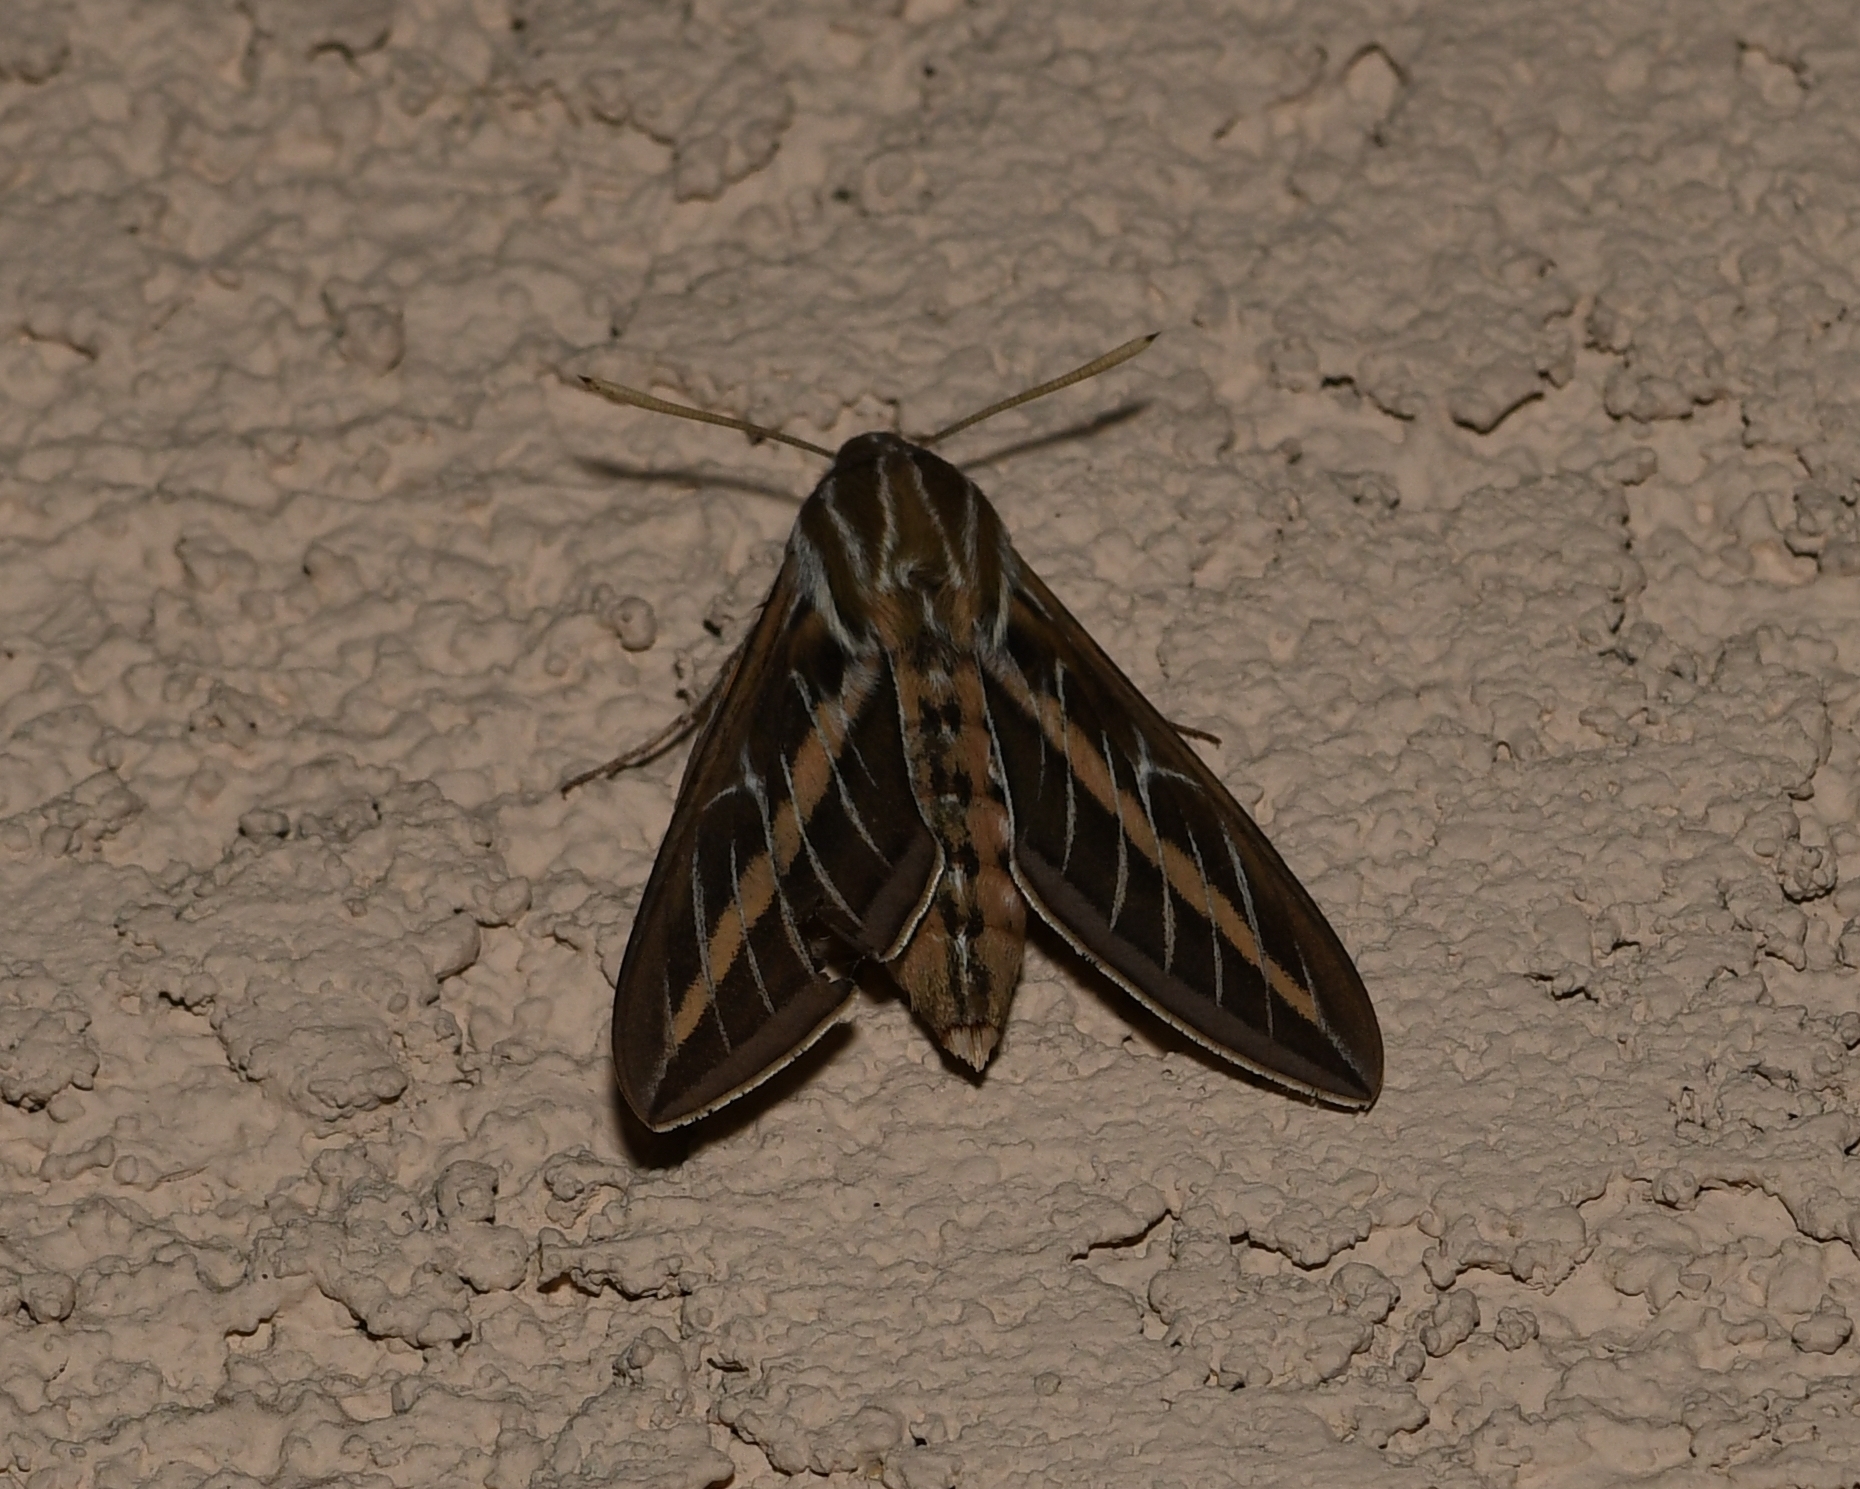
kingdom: Animalia
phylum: Arthropoda
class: Insecta
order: Lepidoptera
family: Sphingidae
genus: Hyles
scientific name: Hyles lineata
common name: White-lined sphinx
